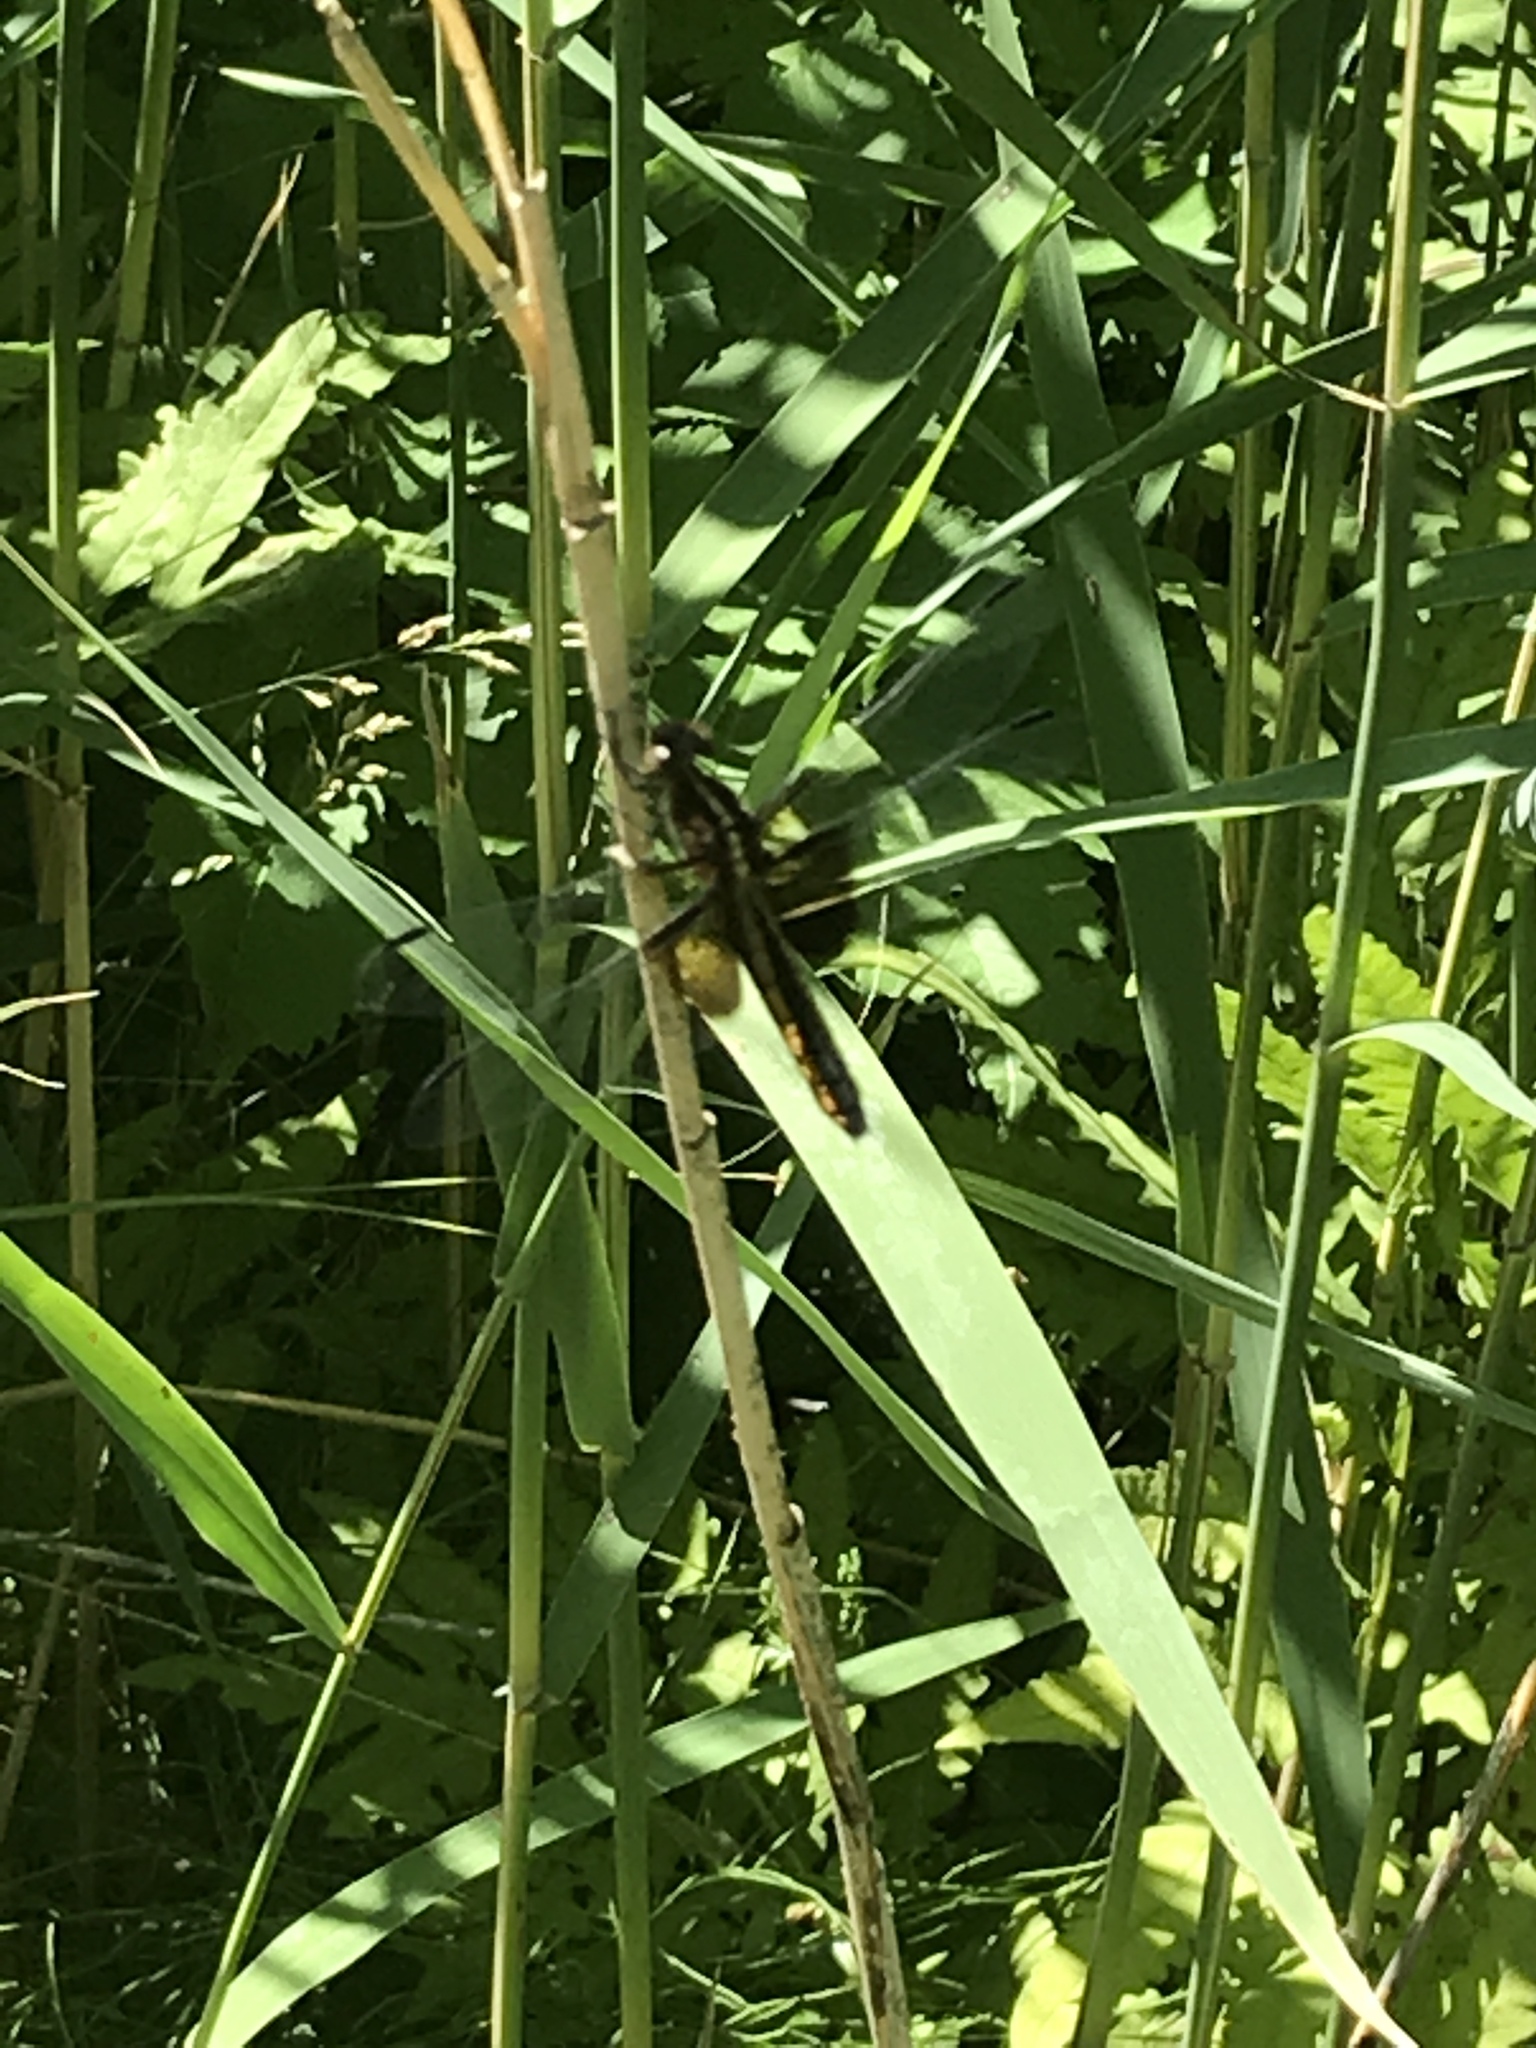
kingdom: Animalia
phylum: Arthropoda
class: Insecta
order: Odonata
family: Libellulidae
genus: Libellula
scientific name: Libellula luctuosa
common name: Widow skimmer
